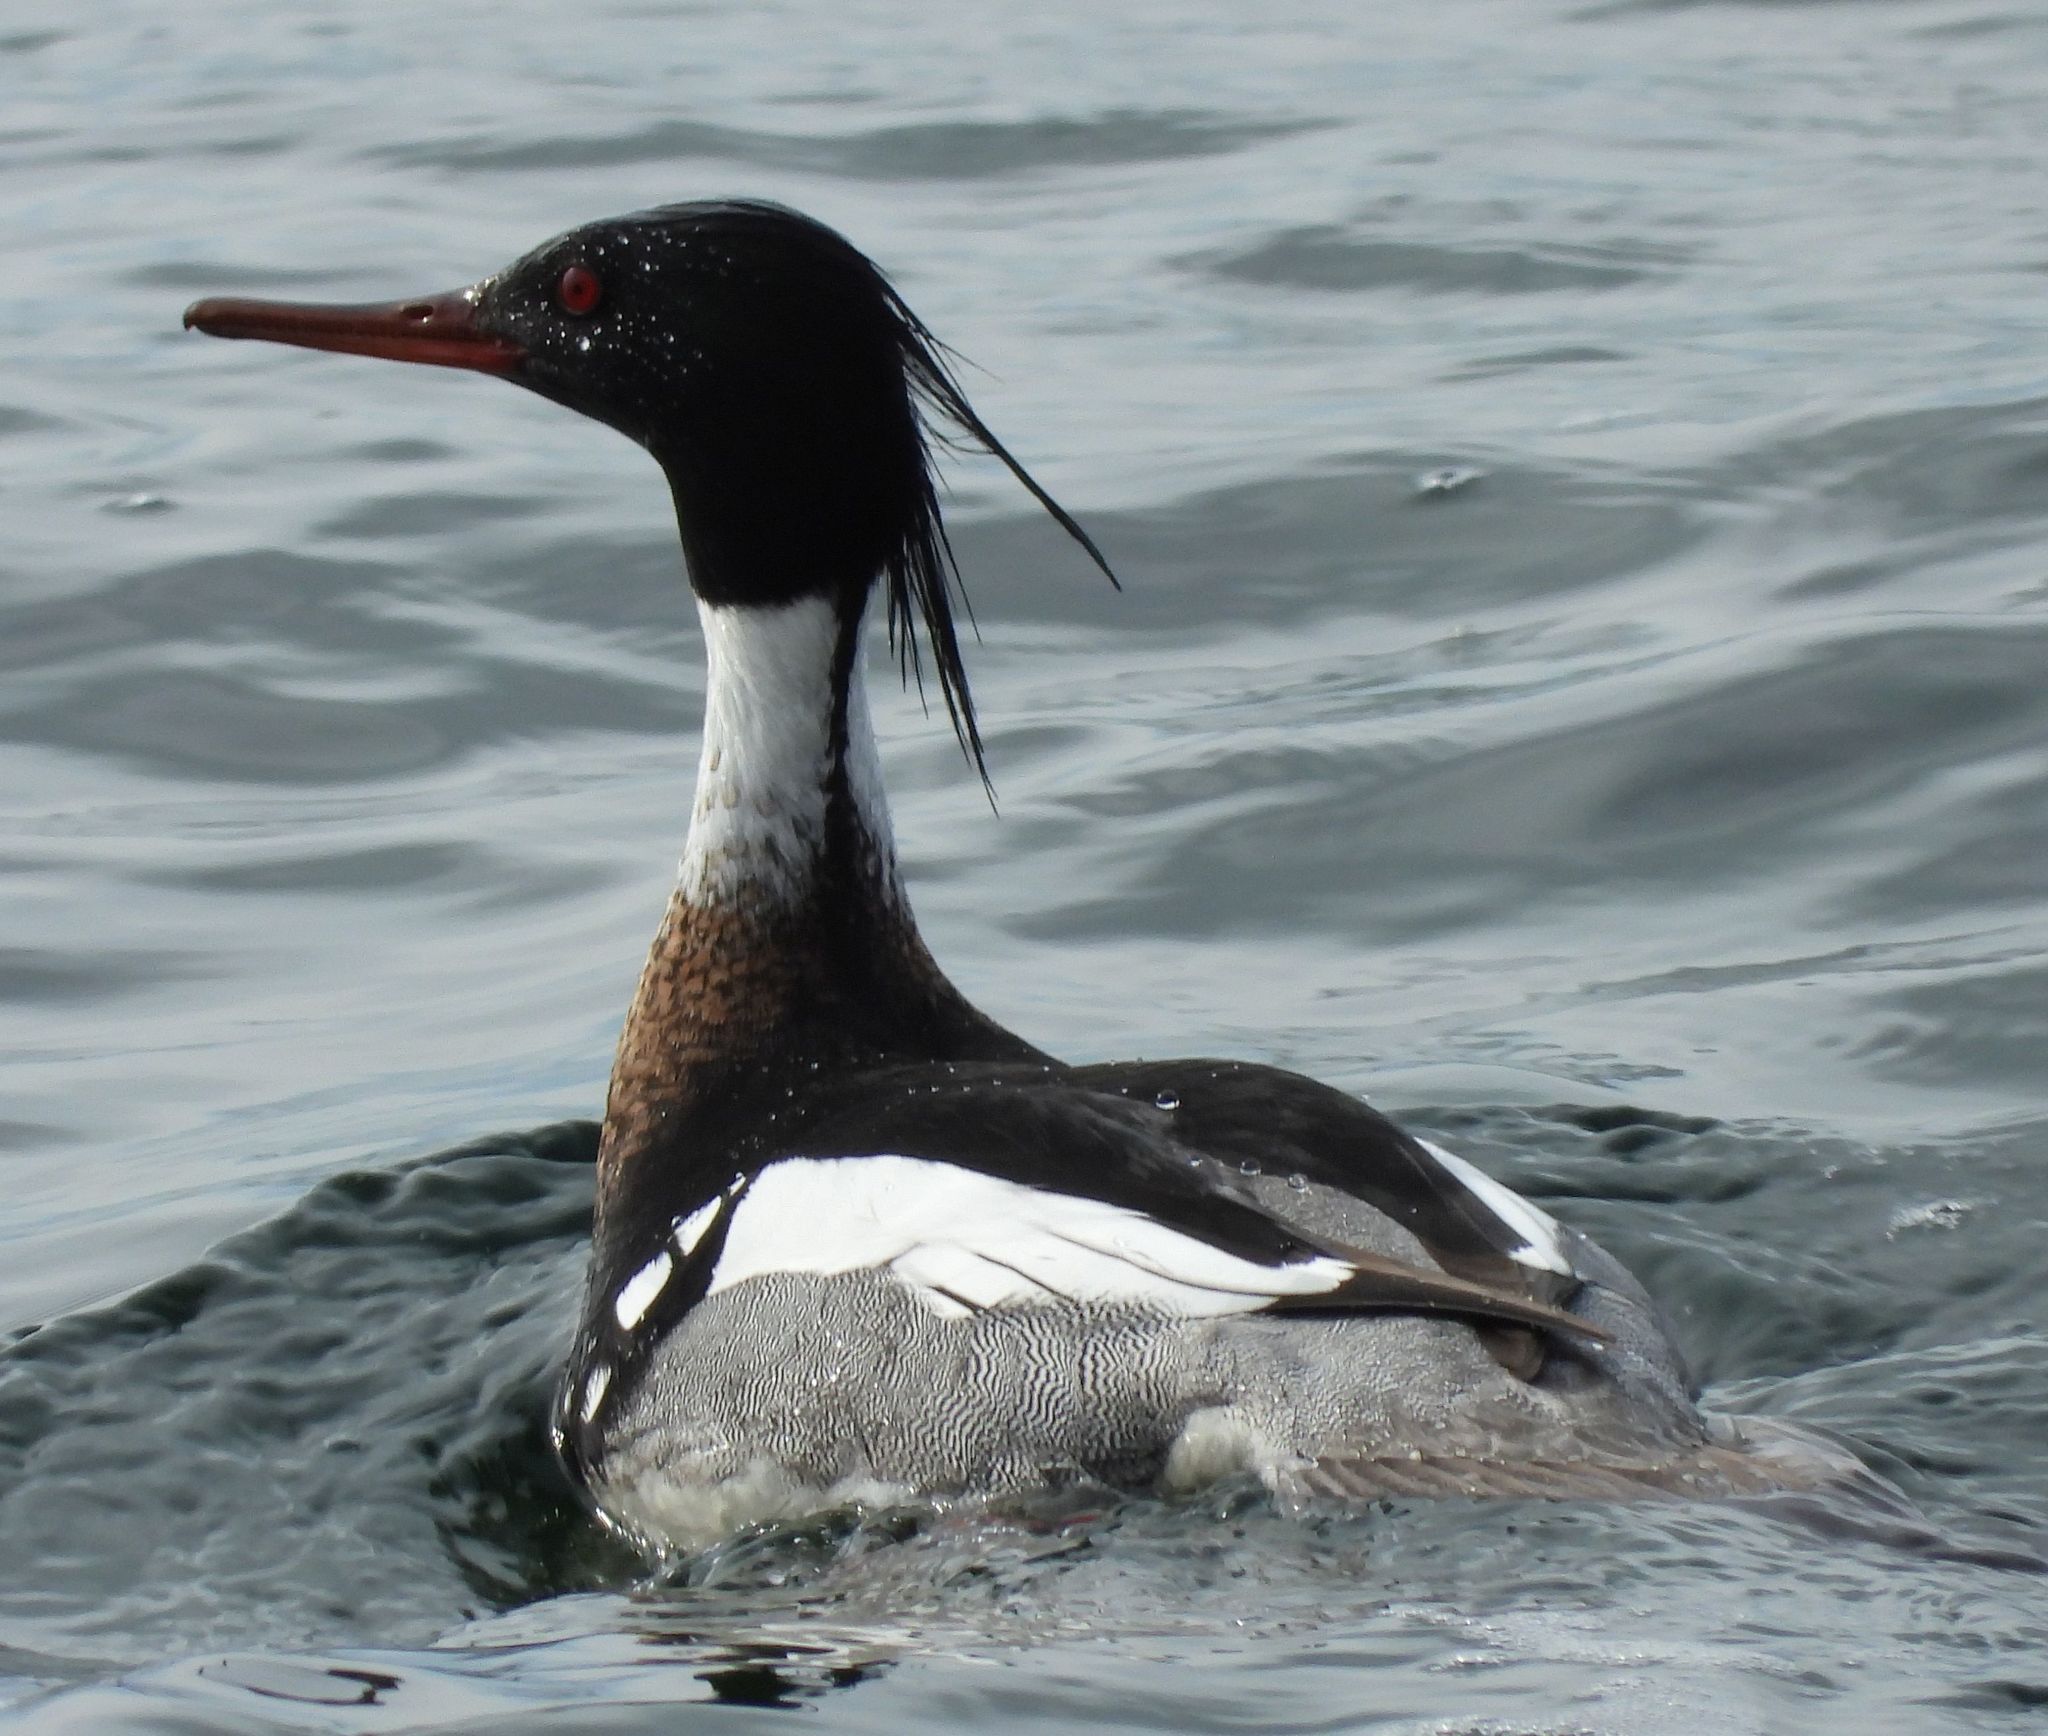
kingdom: Animalia
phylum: Chordata
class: Aves
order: Anseriformes
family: Anatidae
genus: Mergus
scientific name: Mergus serrator
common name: Red-breasted merganser
